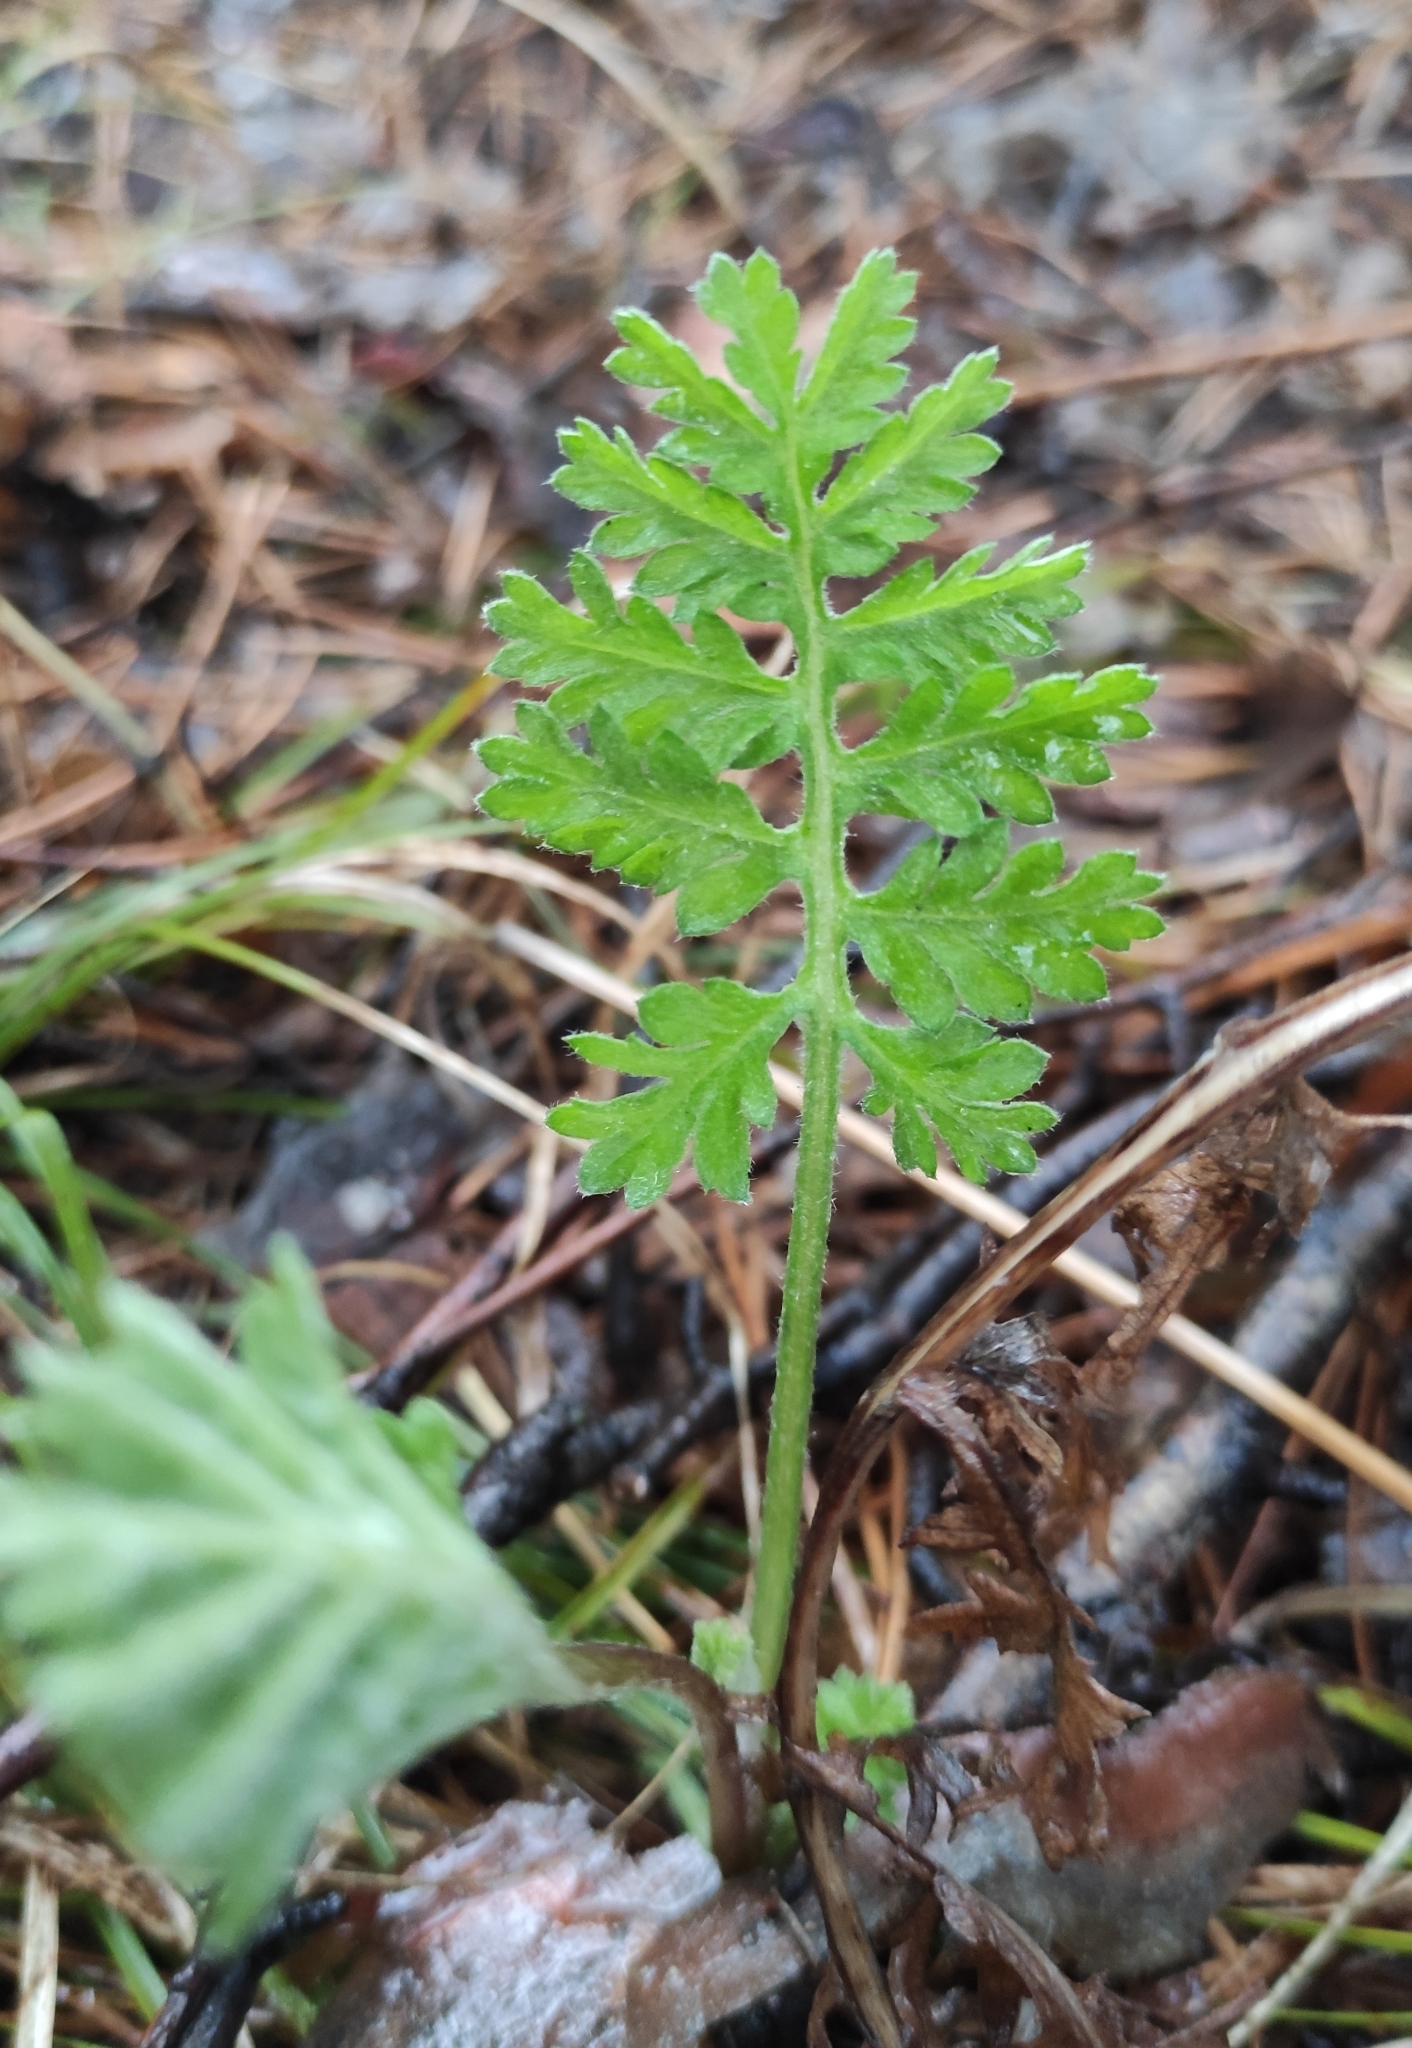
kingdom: Plantae
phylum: Tracheophyta
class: Magnoliopsida
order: Asterales
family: Asteraceae
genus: Artemisia
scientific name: Artemisia tanacetifolia
